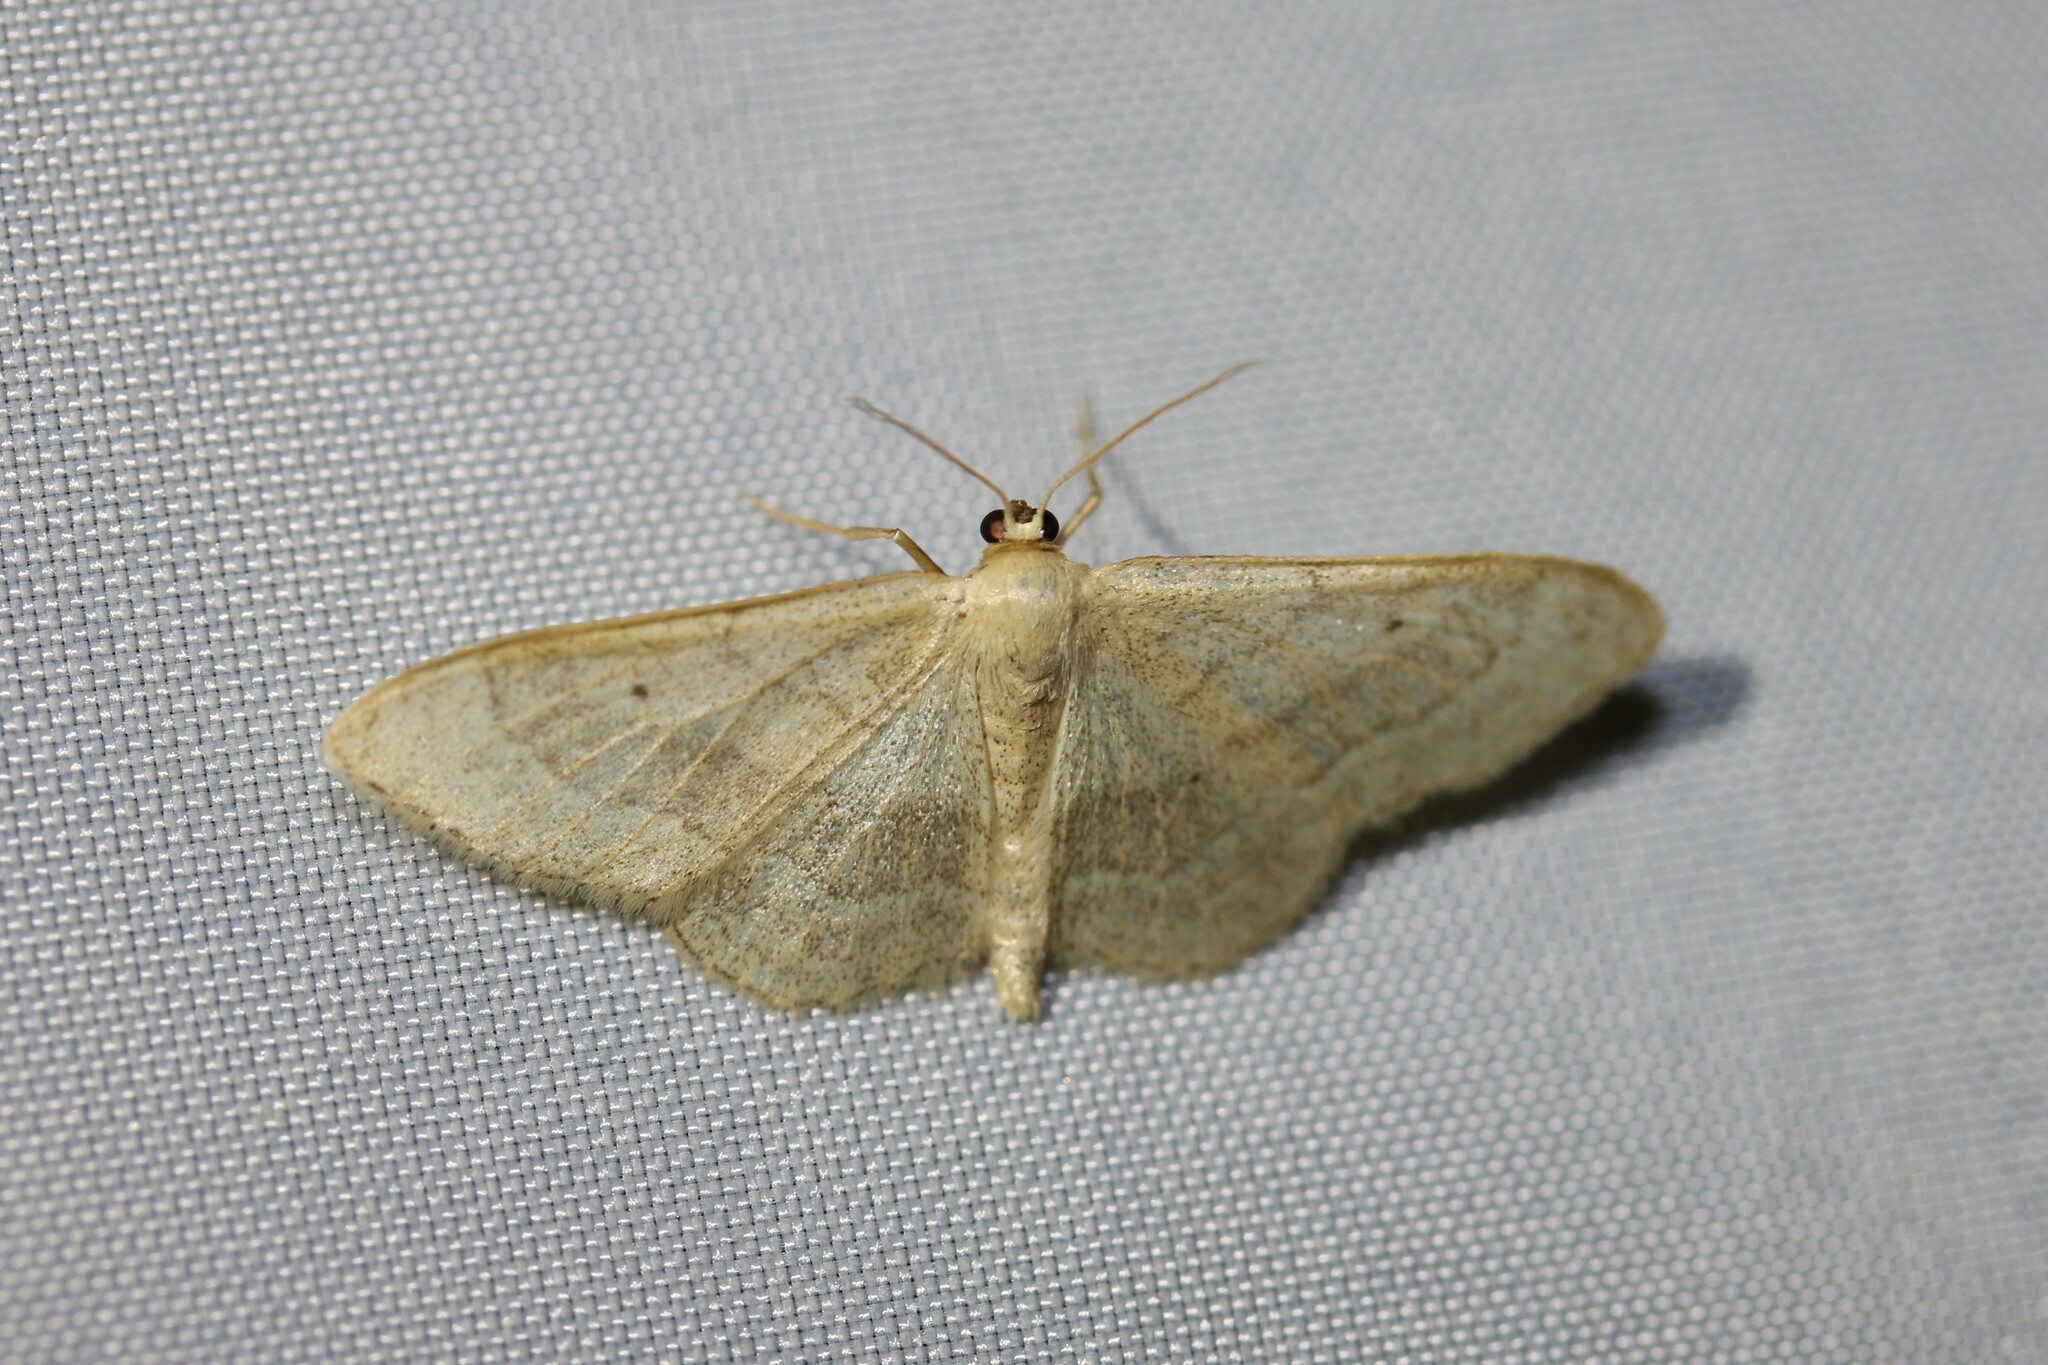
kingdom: Animalia
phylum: Arthropoda
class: Insecta
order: Lepidoptera
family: Geometridae
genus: Idaea
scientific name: Idaea aversata
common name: Riband wave
